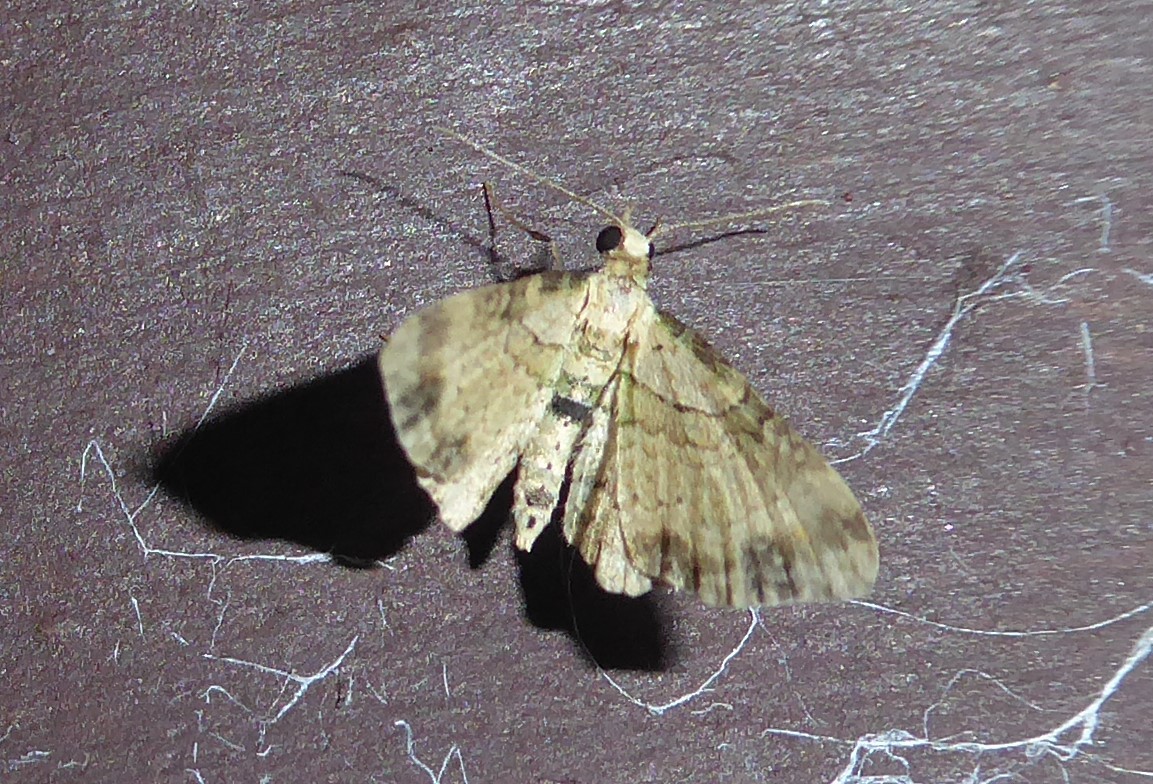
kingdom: Animalia
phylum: Arthropoda
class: Insecta
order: Lepidoptera
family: Geometridae
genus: Chloroclystis
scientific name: Chloroclystis
